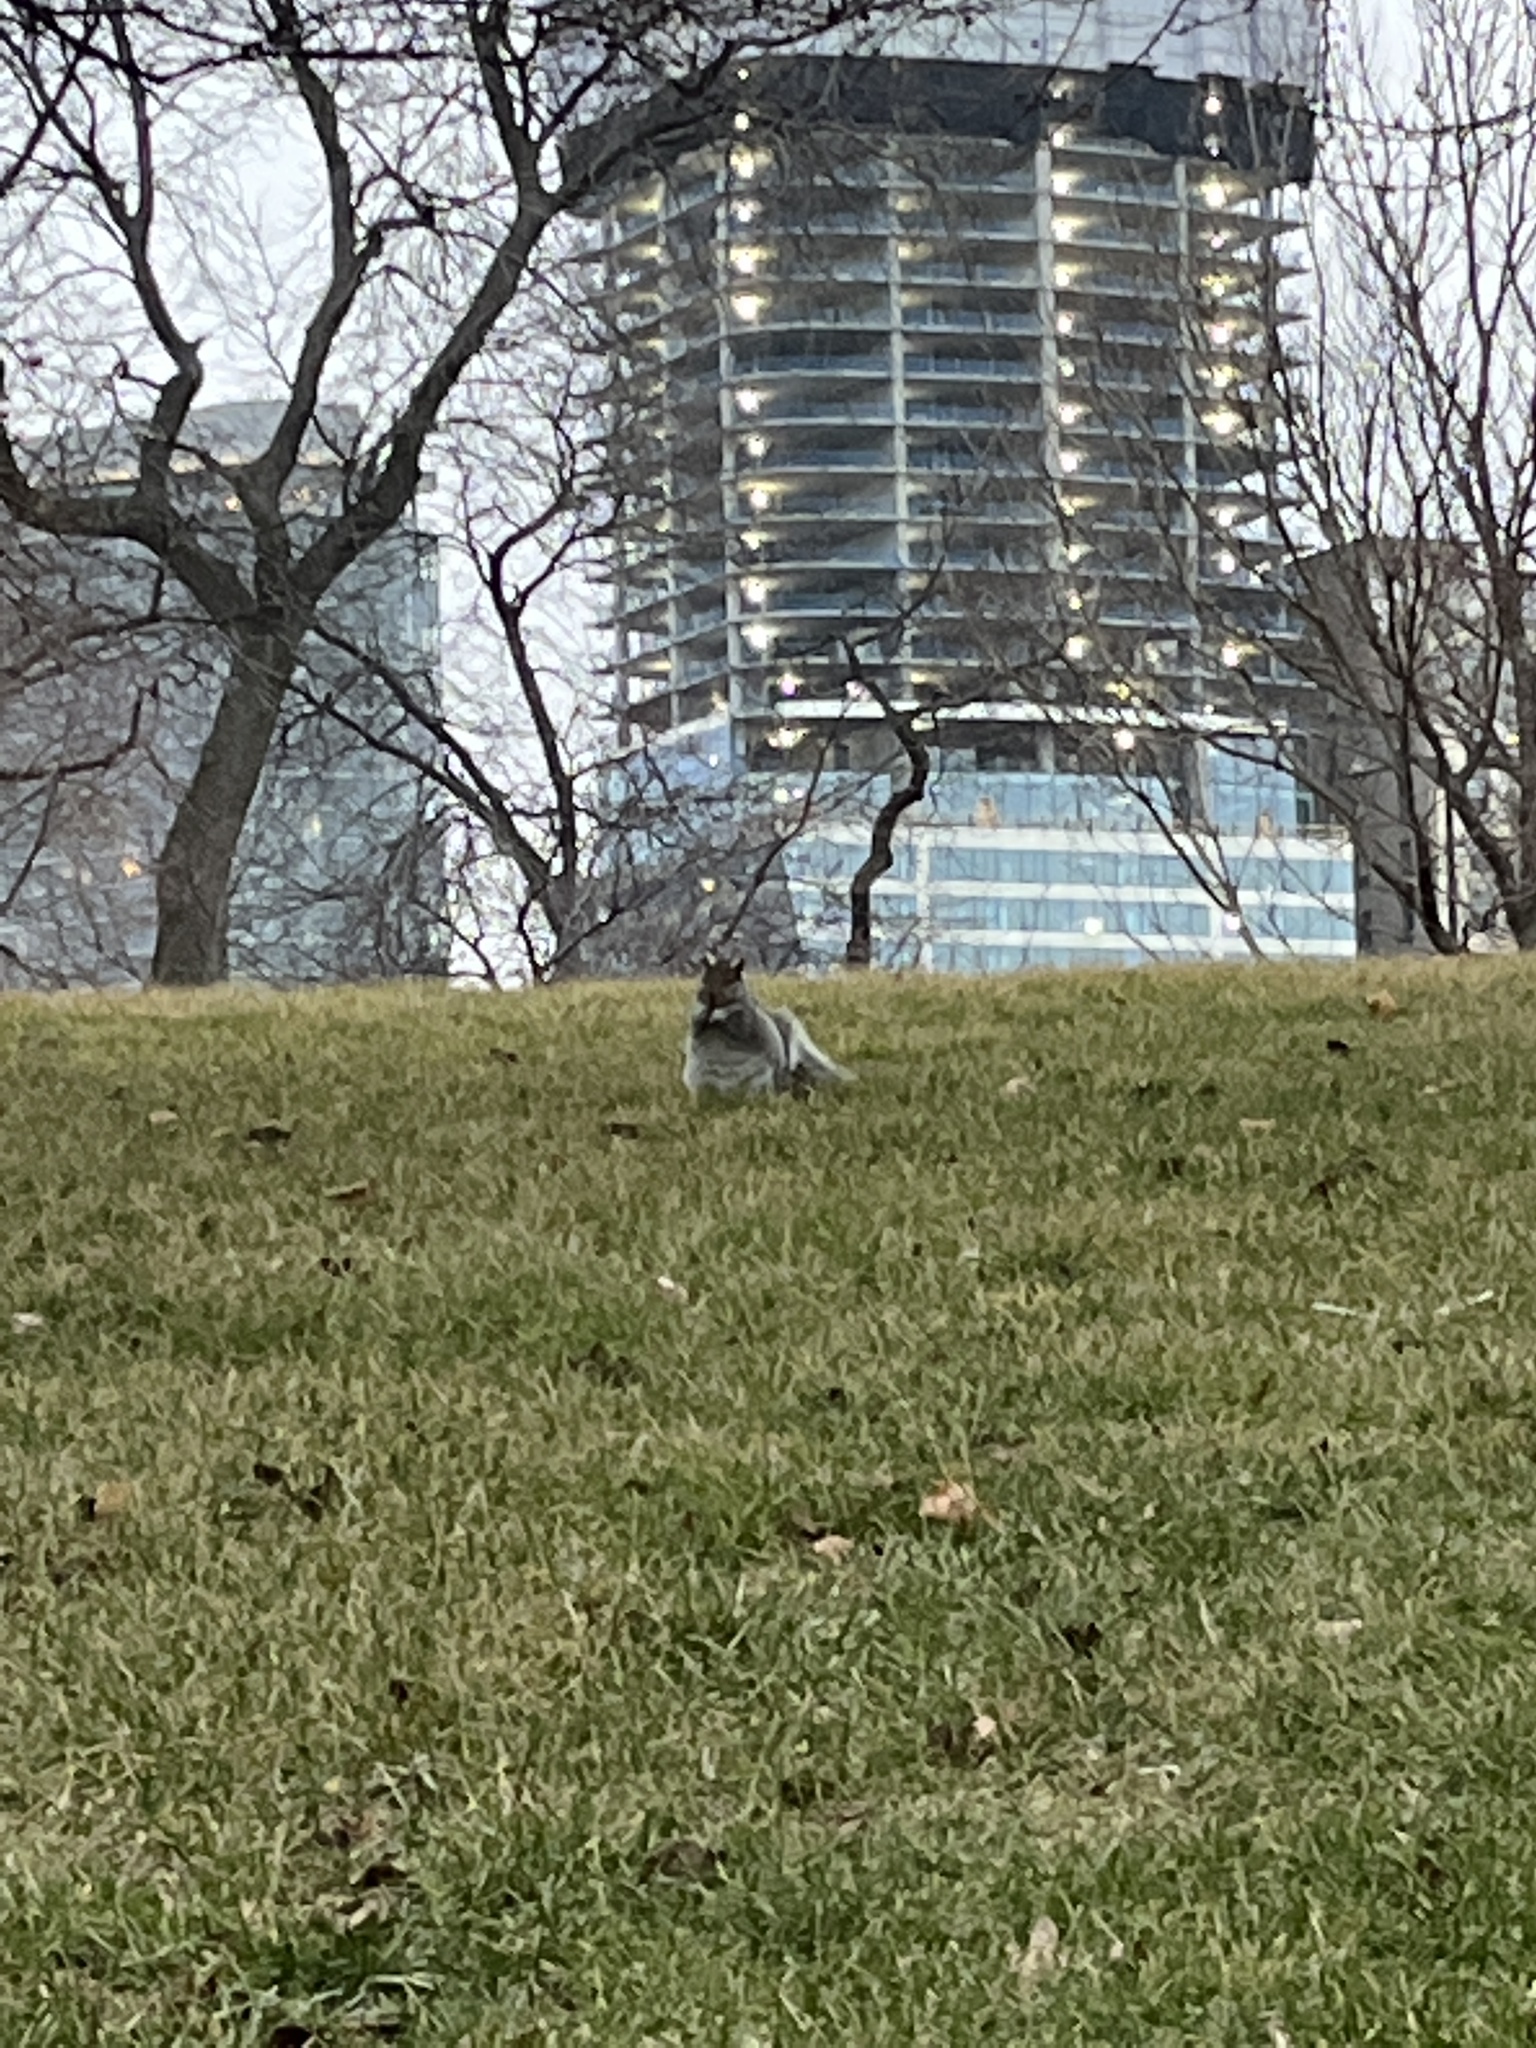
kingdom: Animalia
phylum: Chordata
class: Mammalia
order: Rodentia
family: Sciuridae
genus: Sciurus
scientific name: Sciurus carolinensis
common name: Eastern gray squirrel
